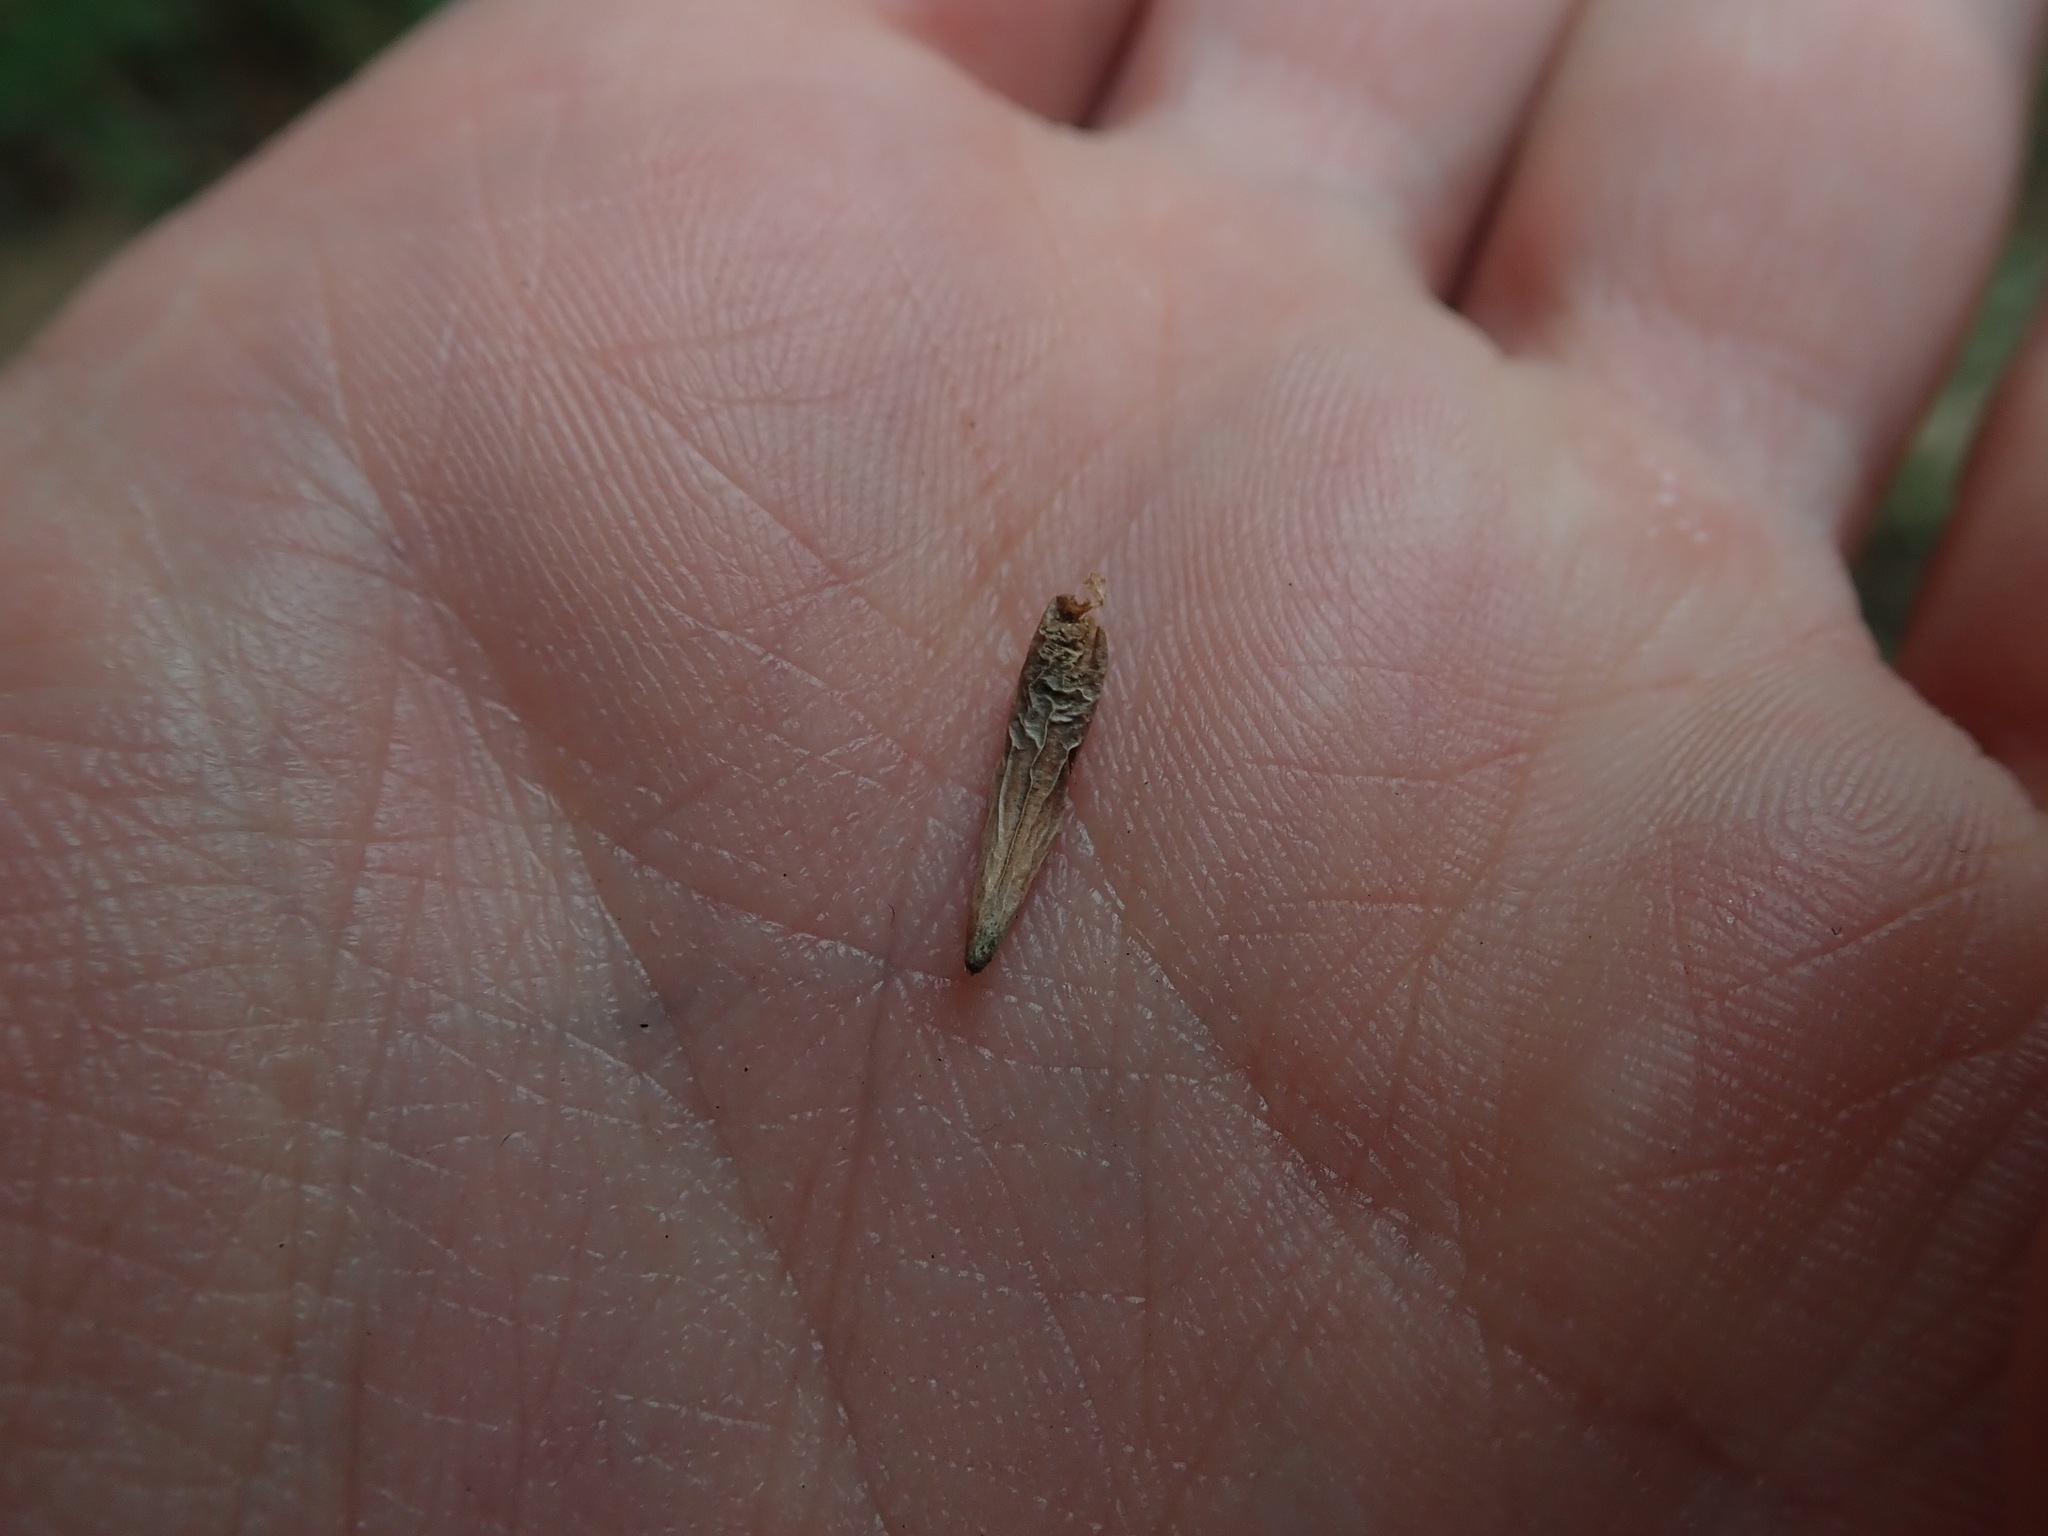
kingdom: Plantae
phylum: Tracheophyta
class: Magnoliopsida
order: Lamiales
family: Acanthaceae
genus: Barleria
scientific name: Barleria prionitis
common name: Barleria
